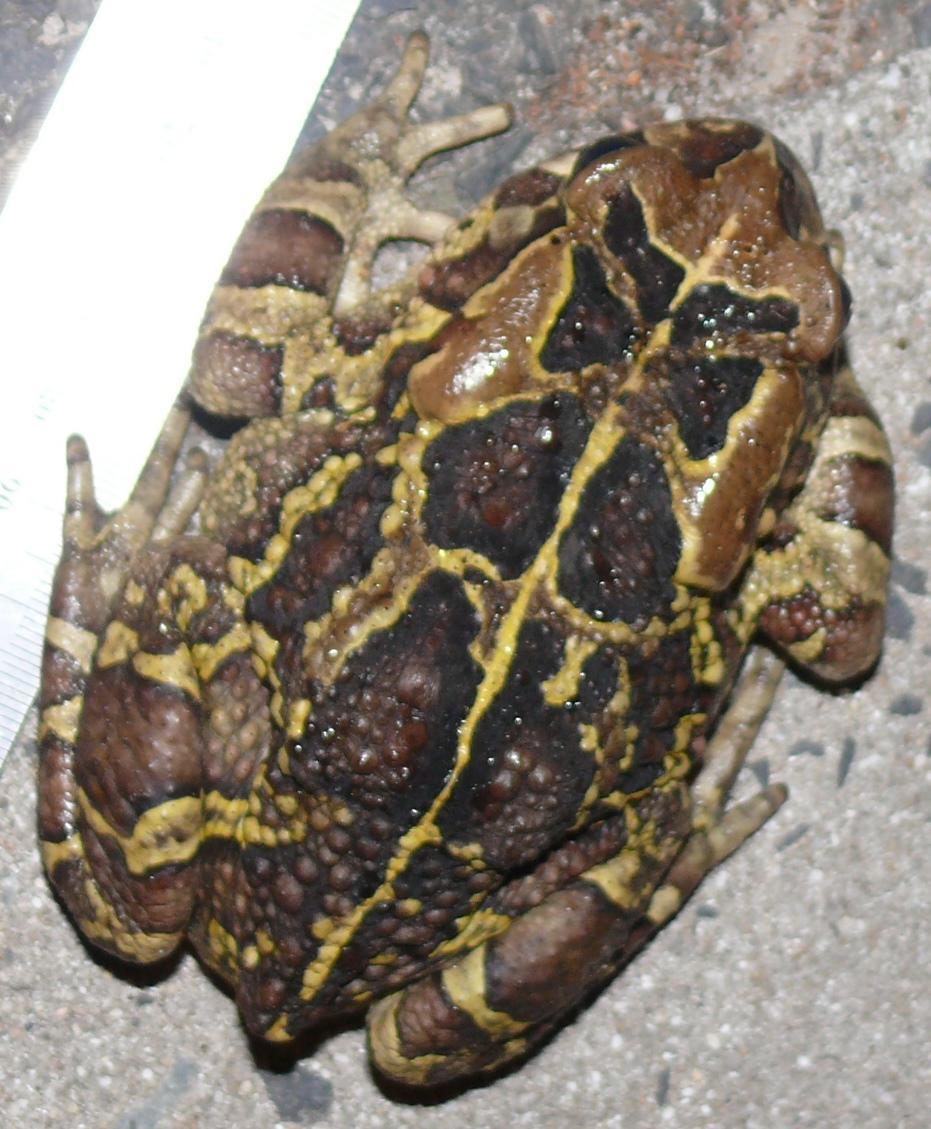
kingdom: Animalia
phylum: Chordata
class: Amphibia
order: Anura
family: Bufonidae
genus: Sclerophrys
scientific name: Sclerophrys pantherina
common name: Panther toad
